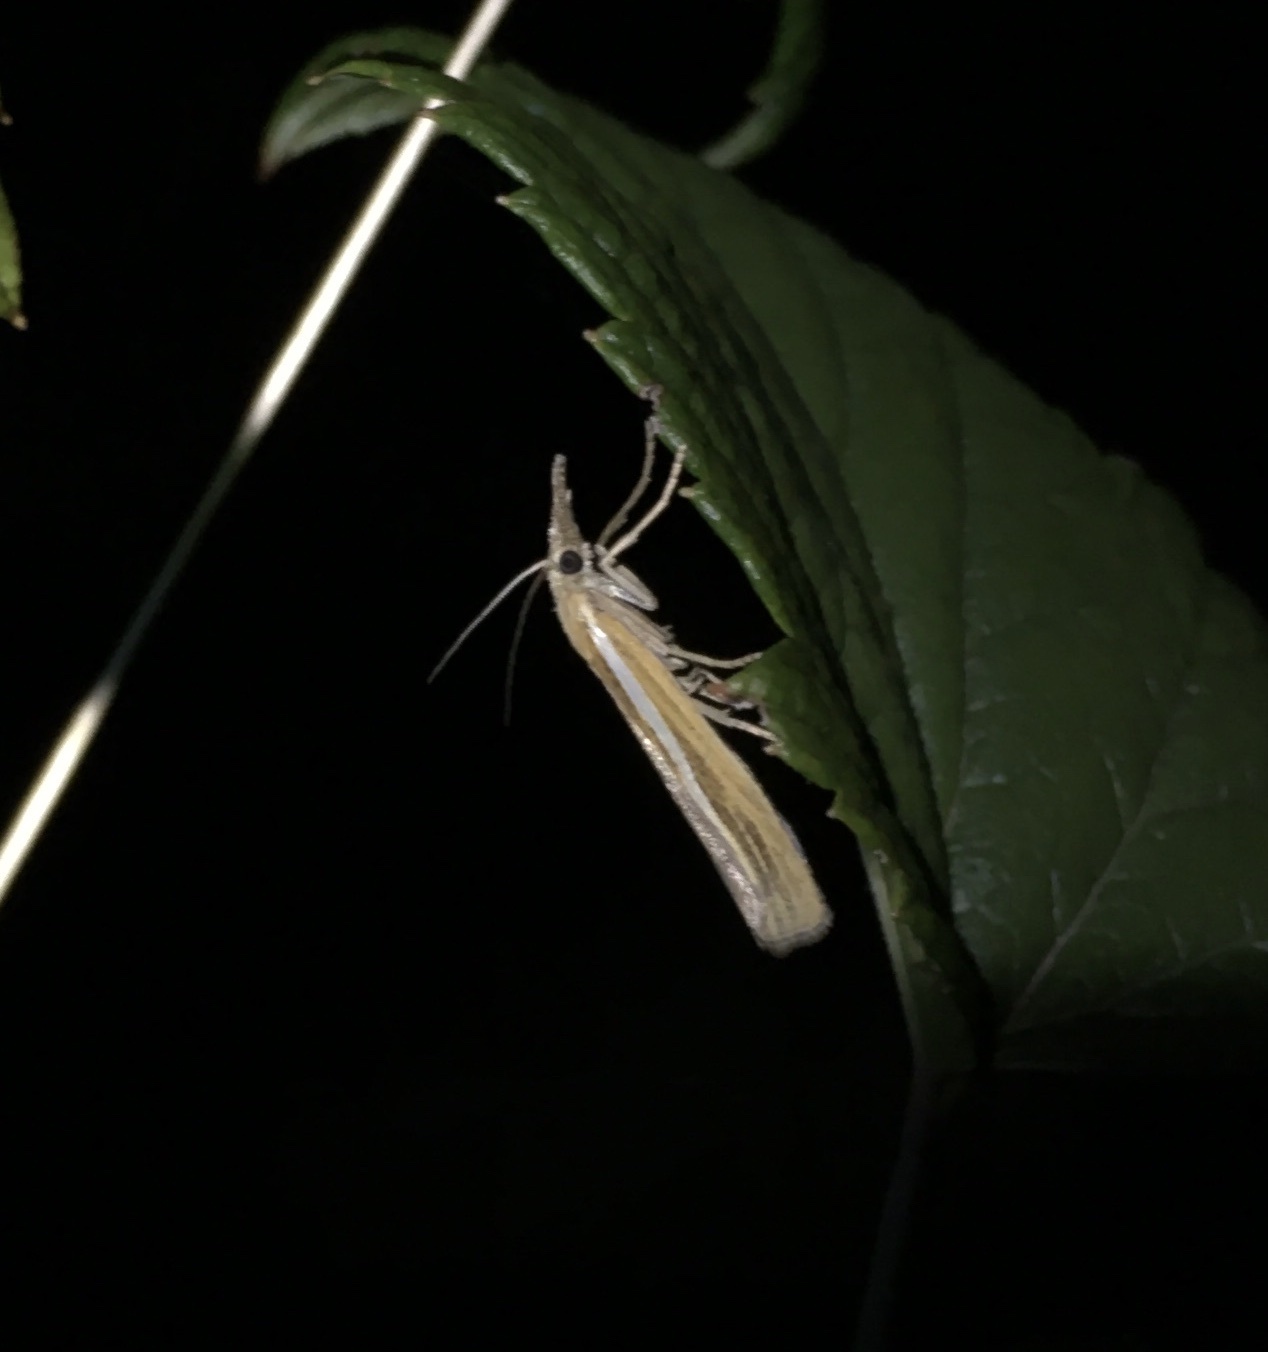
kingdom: Animalia
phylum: Arthropoda
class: Insecta
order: Lepidoptera
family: Crambidae
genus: Agriphila
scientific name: Agriphila tristellus
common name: Common grass-veneer
